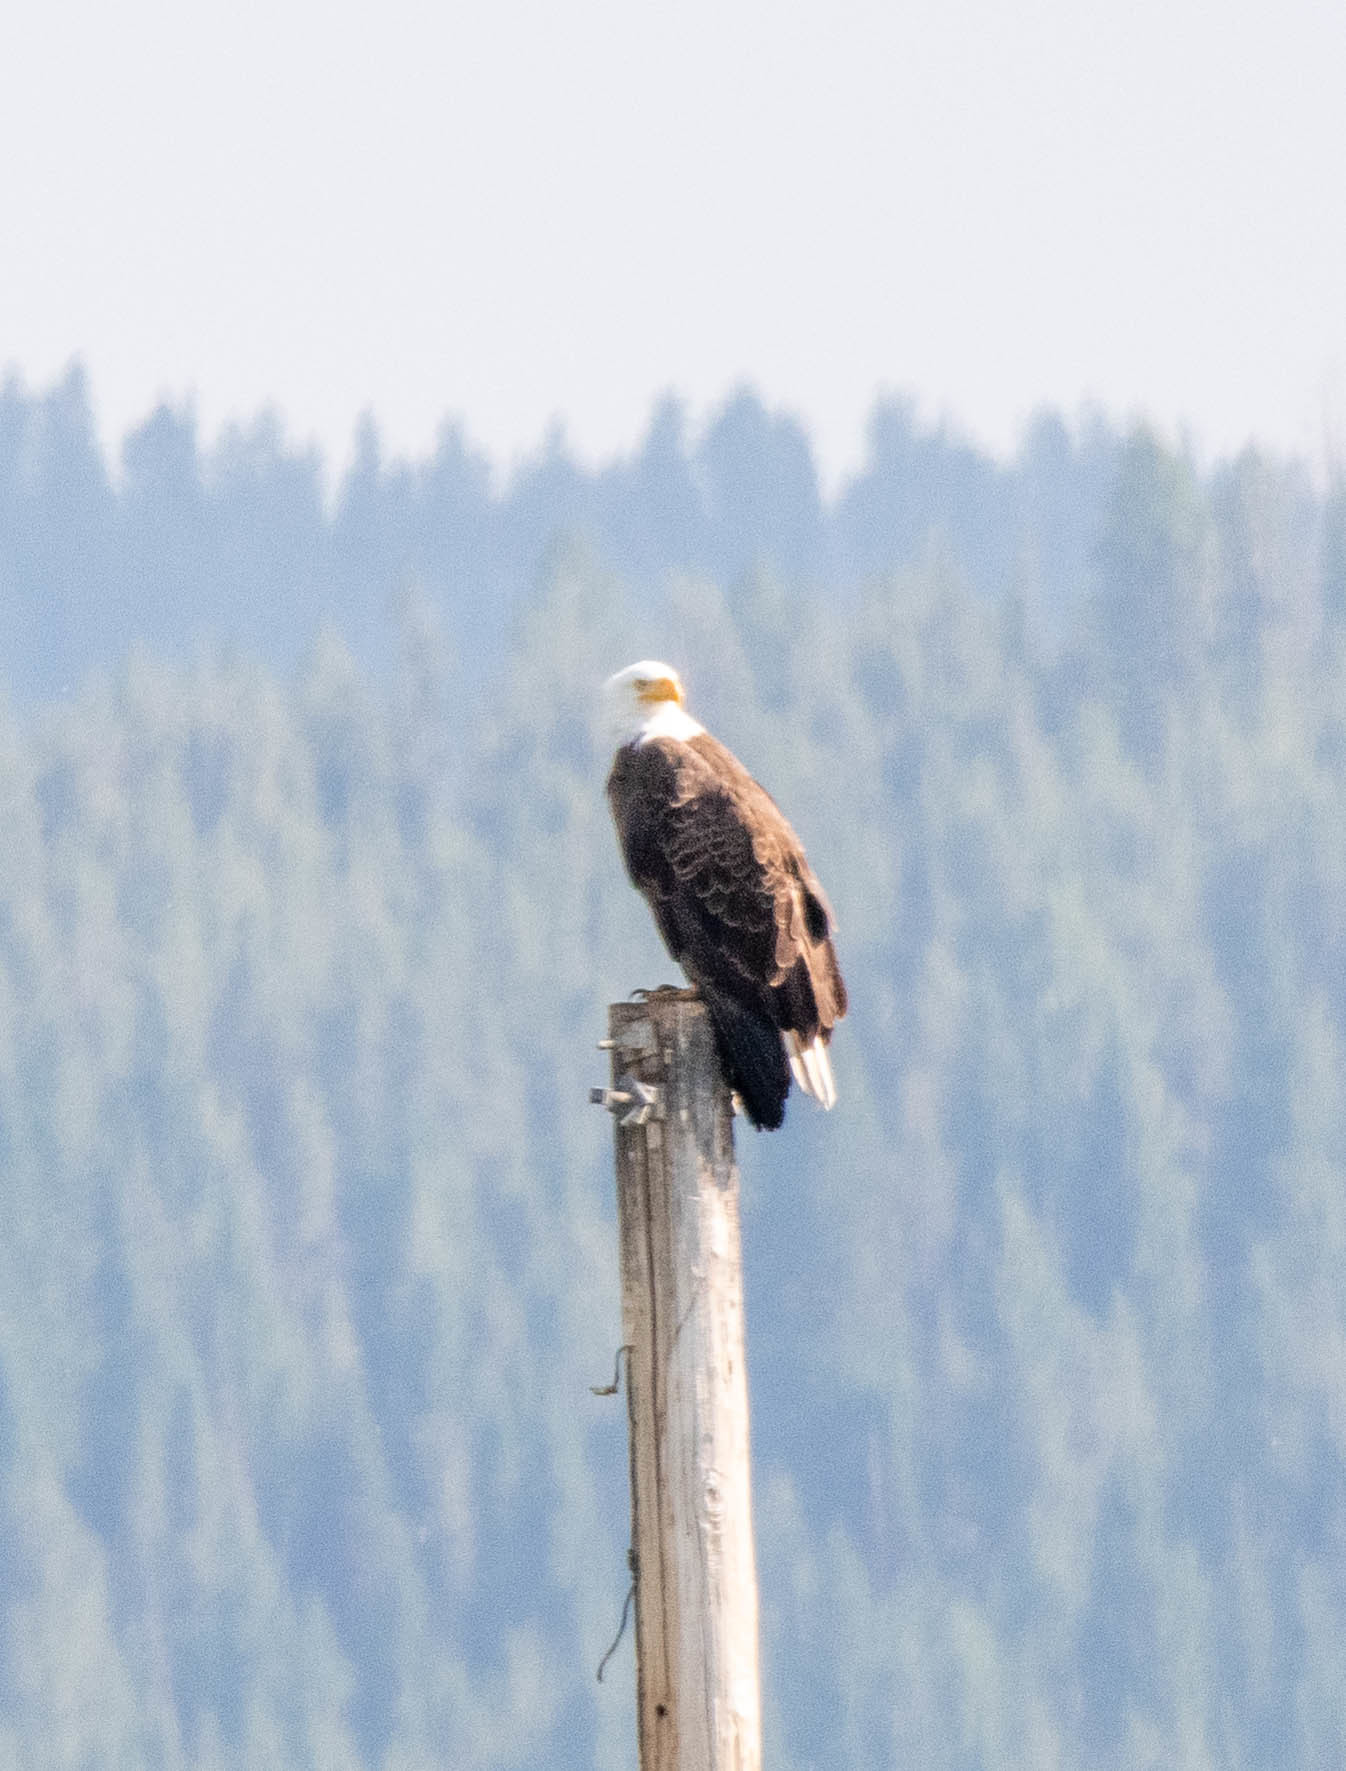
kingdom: Animalia
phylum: Chordata
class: Aves
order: Accipitriformes
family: Accipitridae
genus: Haliaeetus
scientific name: Haliaeetus leucocephalus
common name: Bald eagle
